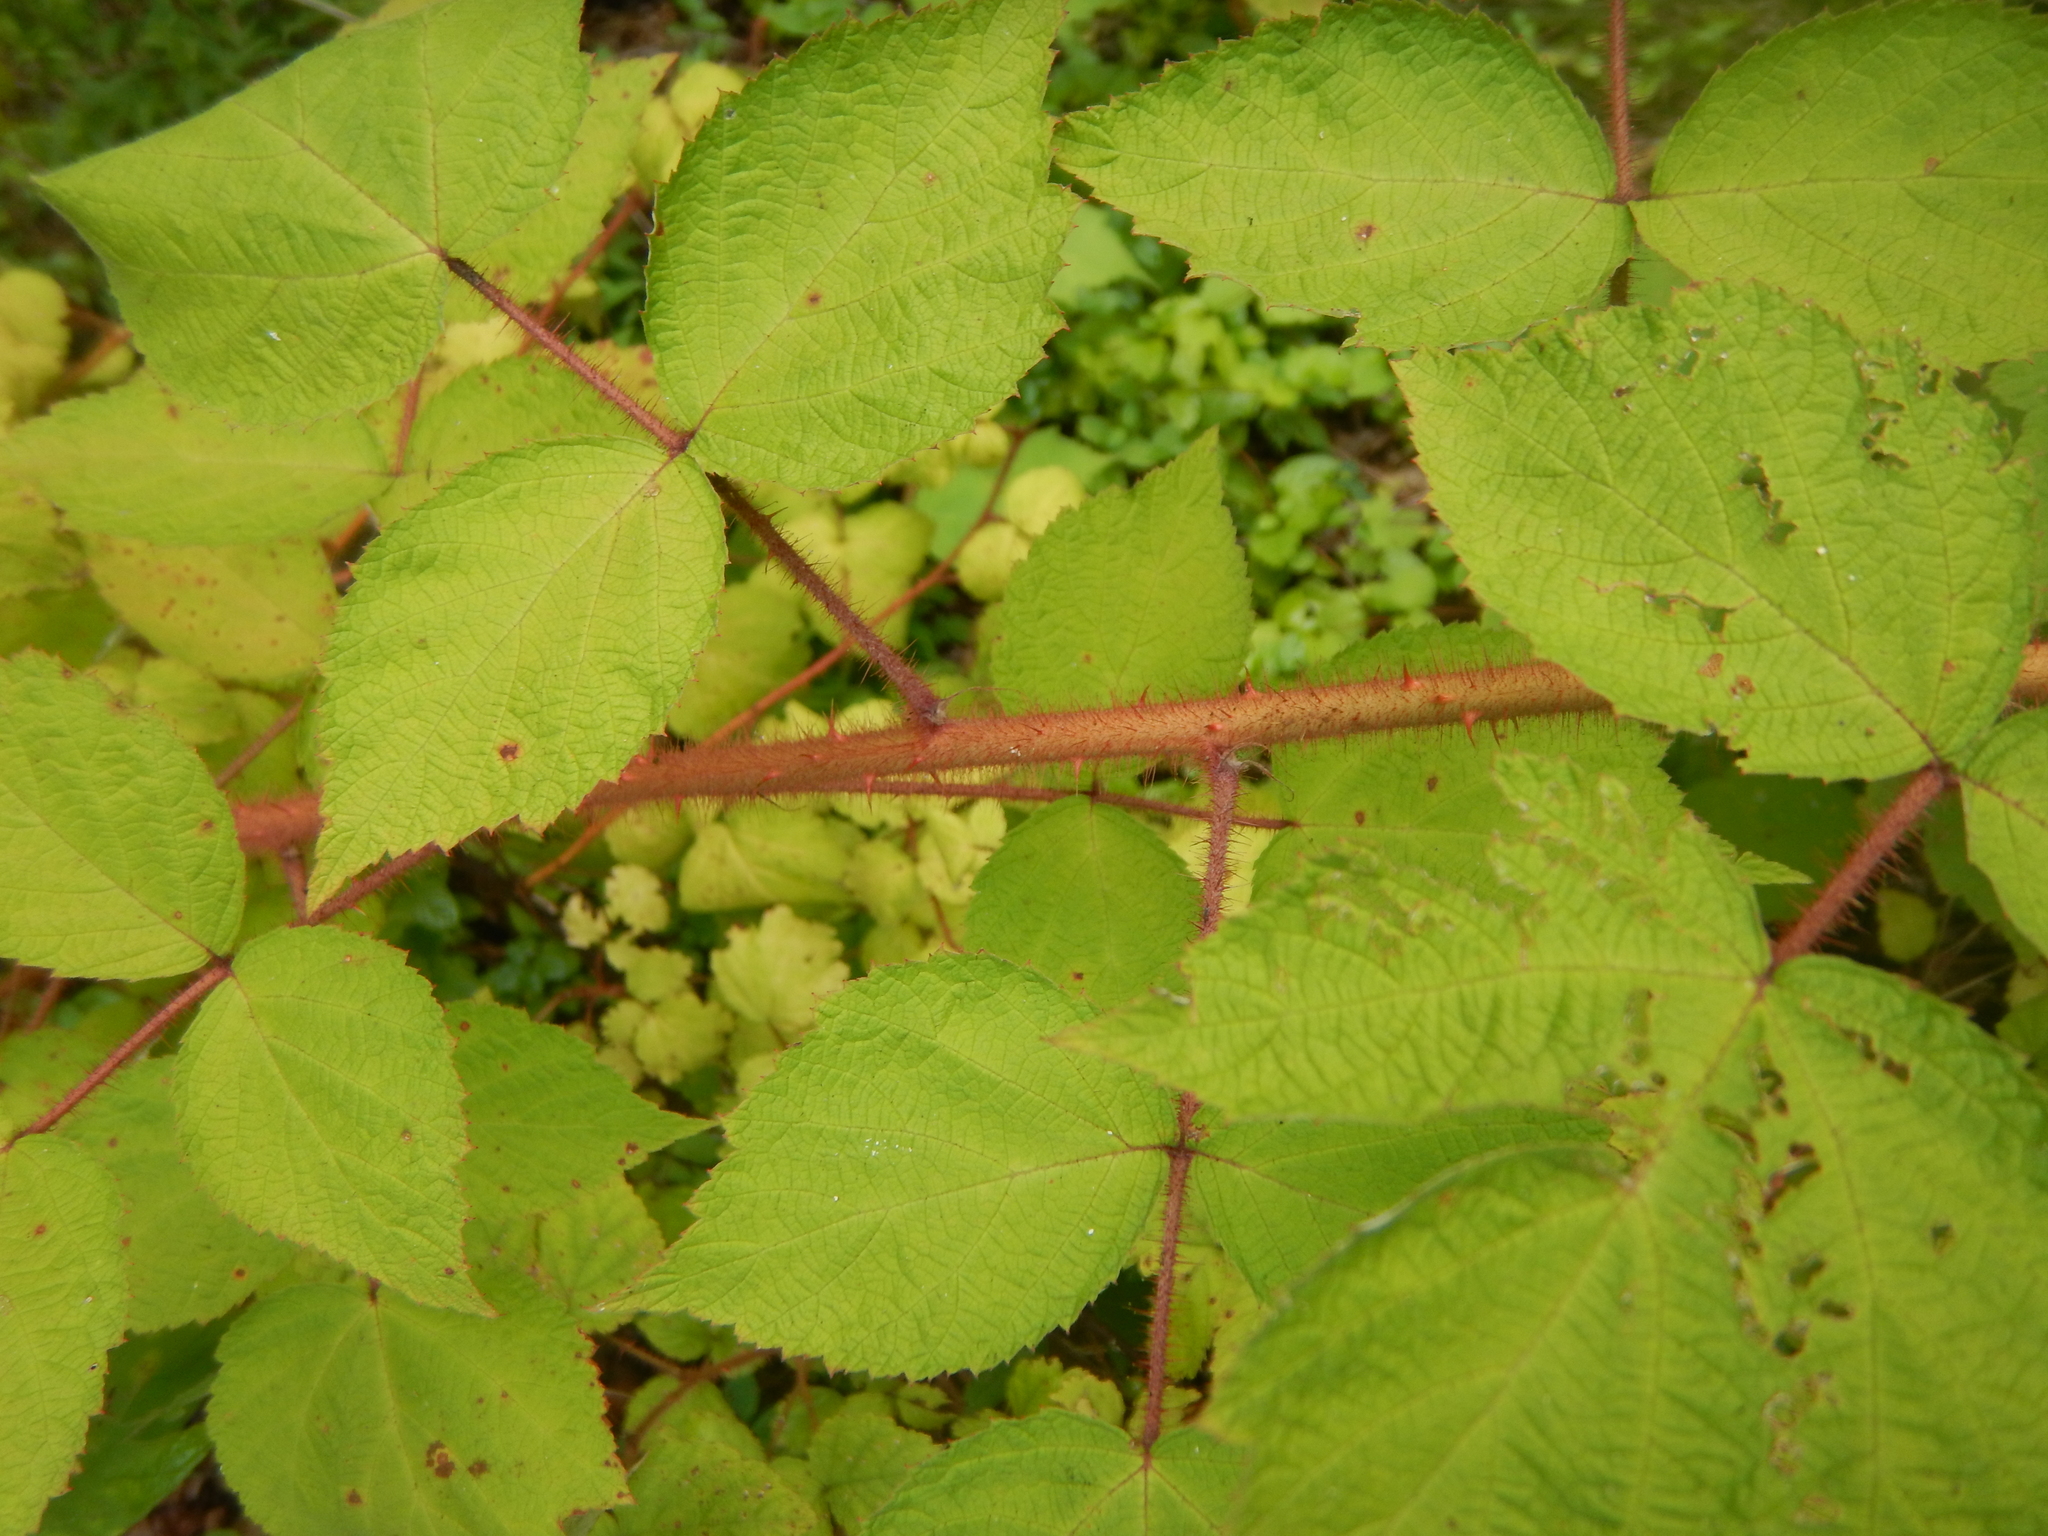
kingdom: Plantae
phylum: Tracheophyta
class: Magnoliopsida
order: Rosales
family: Rosaceae
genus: Rubus
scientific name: Rubus phoenicolasius
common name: Japanese wineberry
